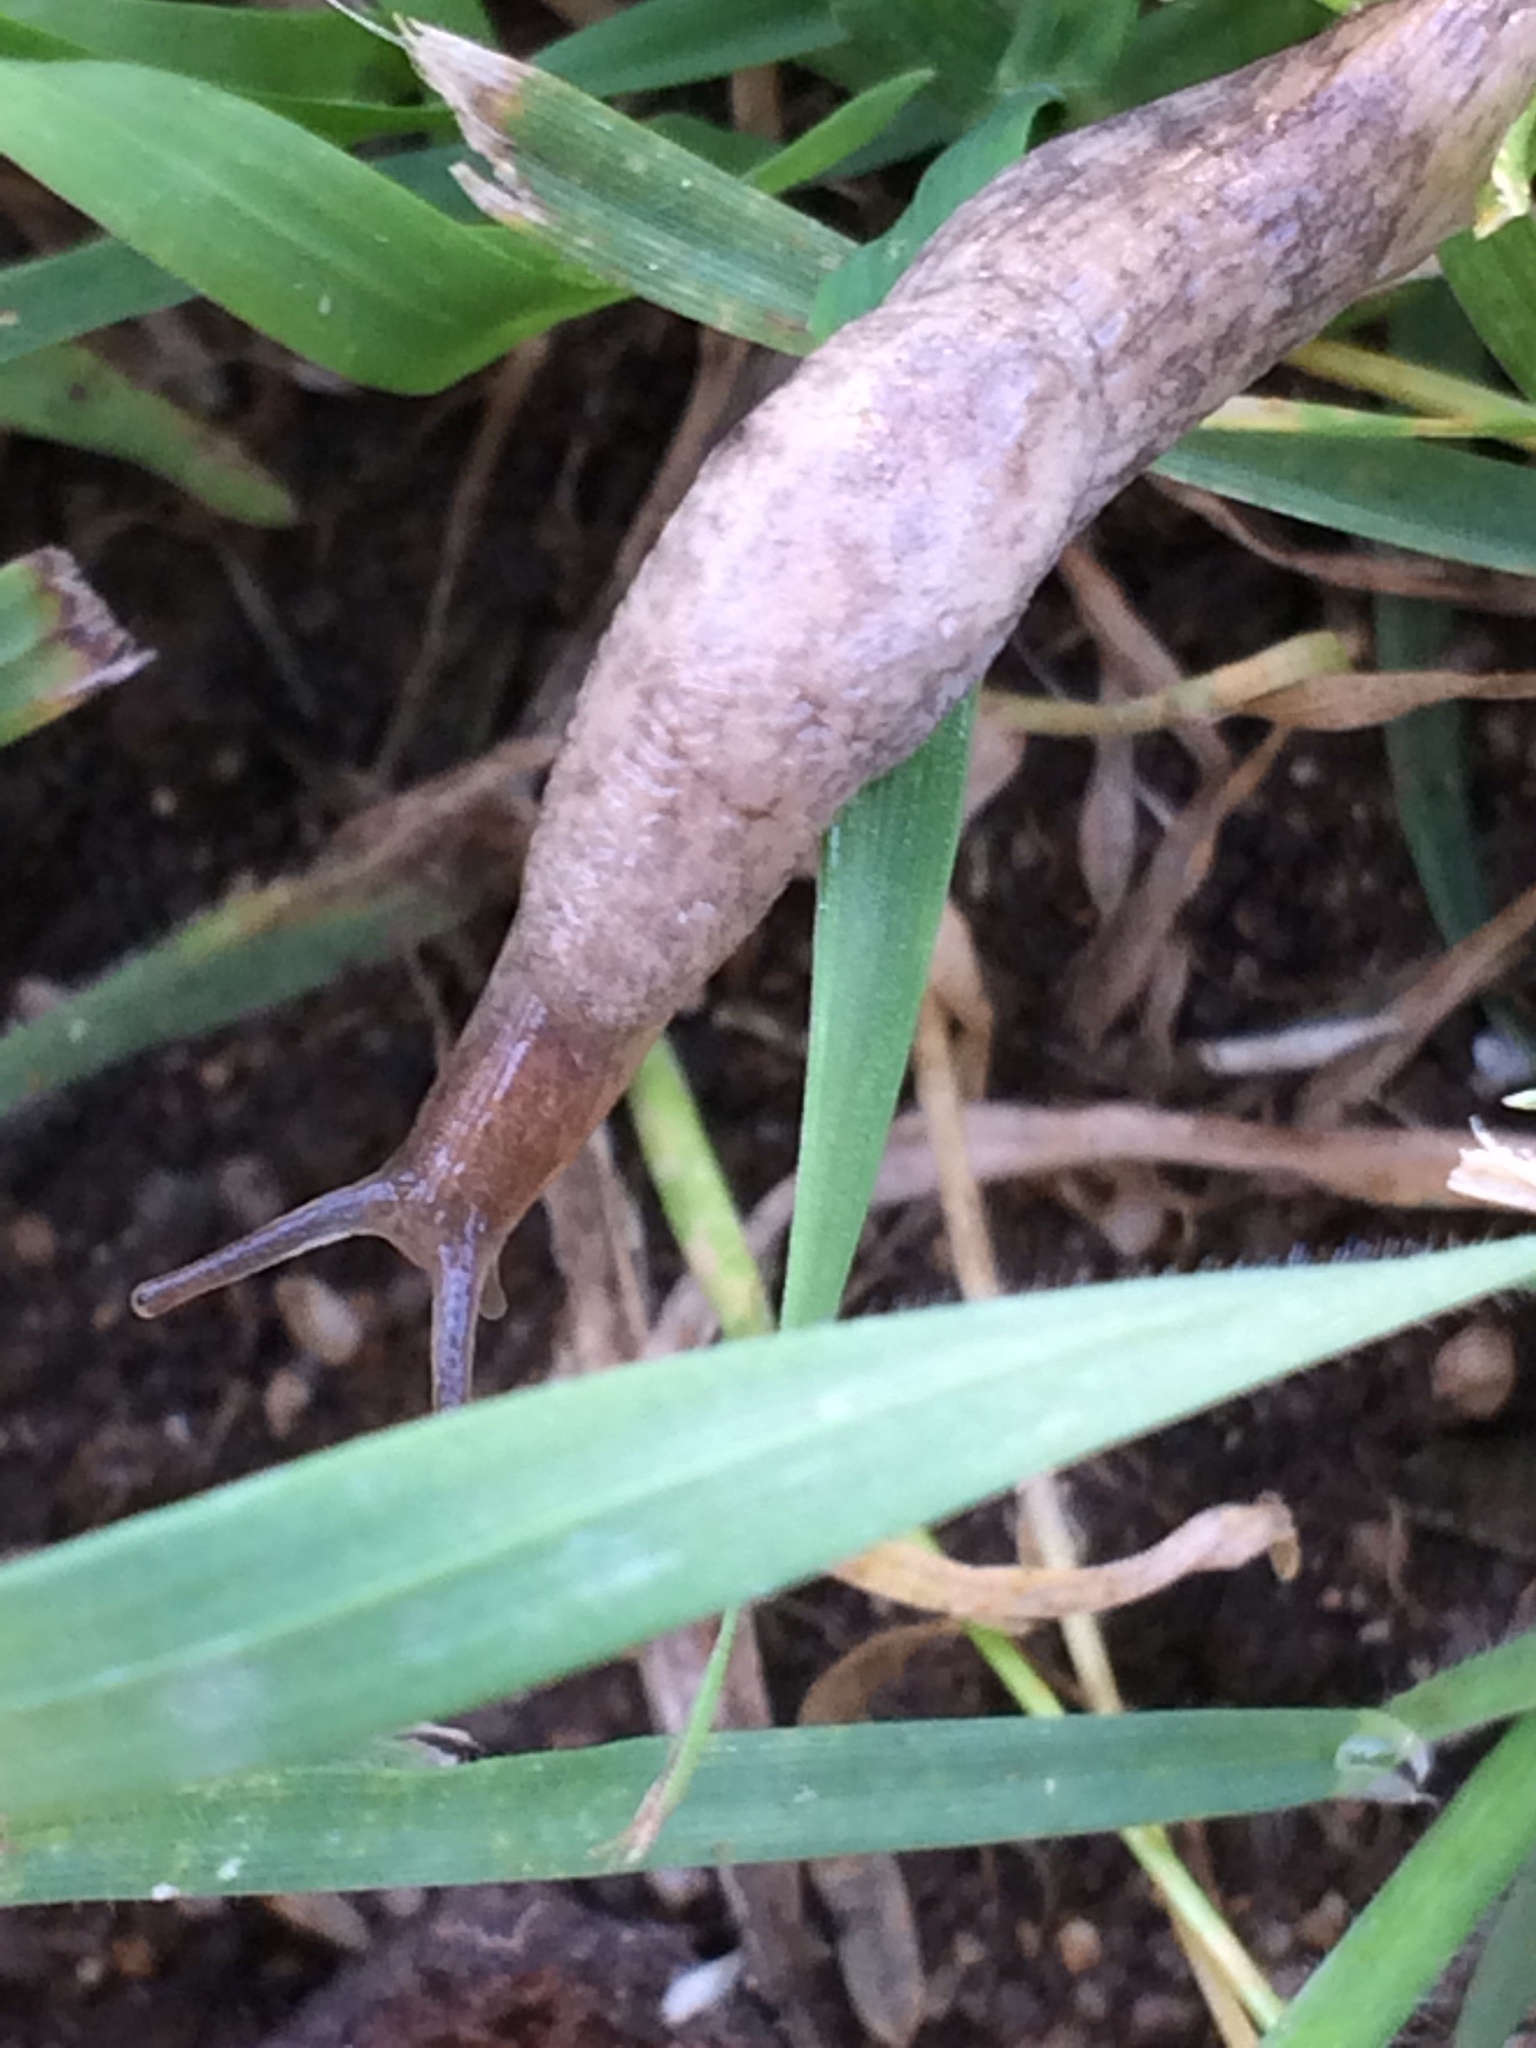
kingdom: Animalia
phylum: Mollusca
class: Gastropoda
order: Stylommatophora
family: Agriolimacidae
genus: Deroceras
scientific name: Deroceras reticulatum
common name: Gray field slug
